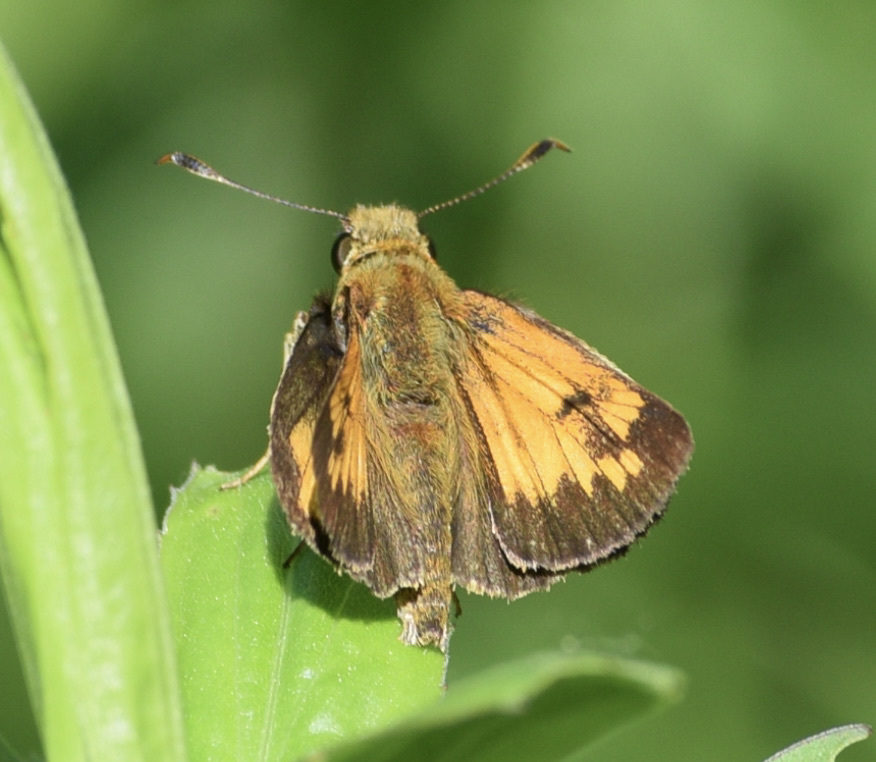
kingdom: Animalia
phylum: Arthropoda
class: Insecta
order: Lepidoptera
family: Hesperiidae
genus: Lon
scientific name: Lon hobomok
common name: Hobomok skipper
